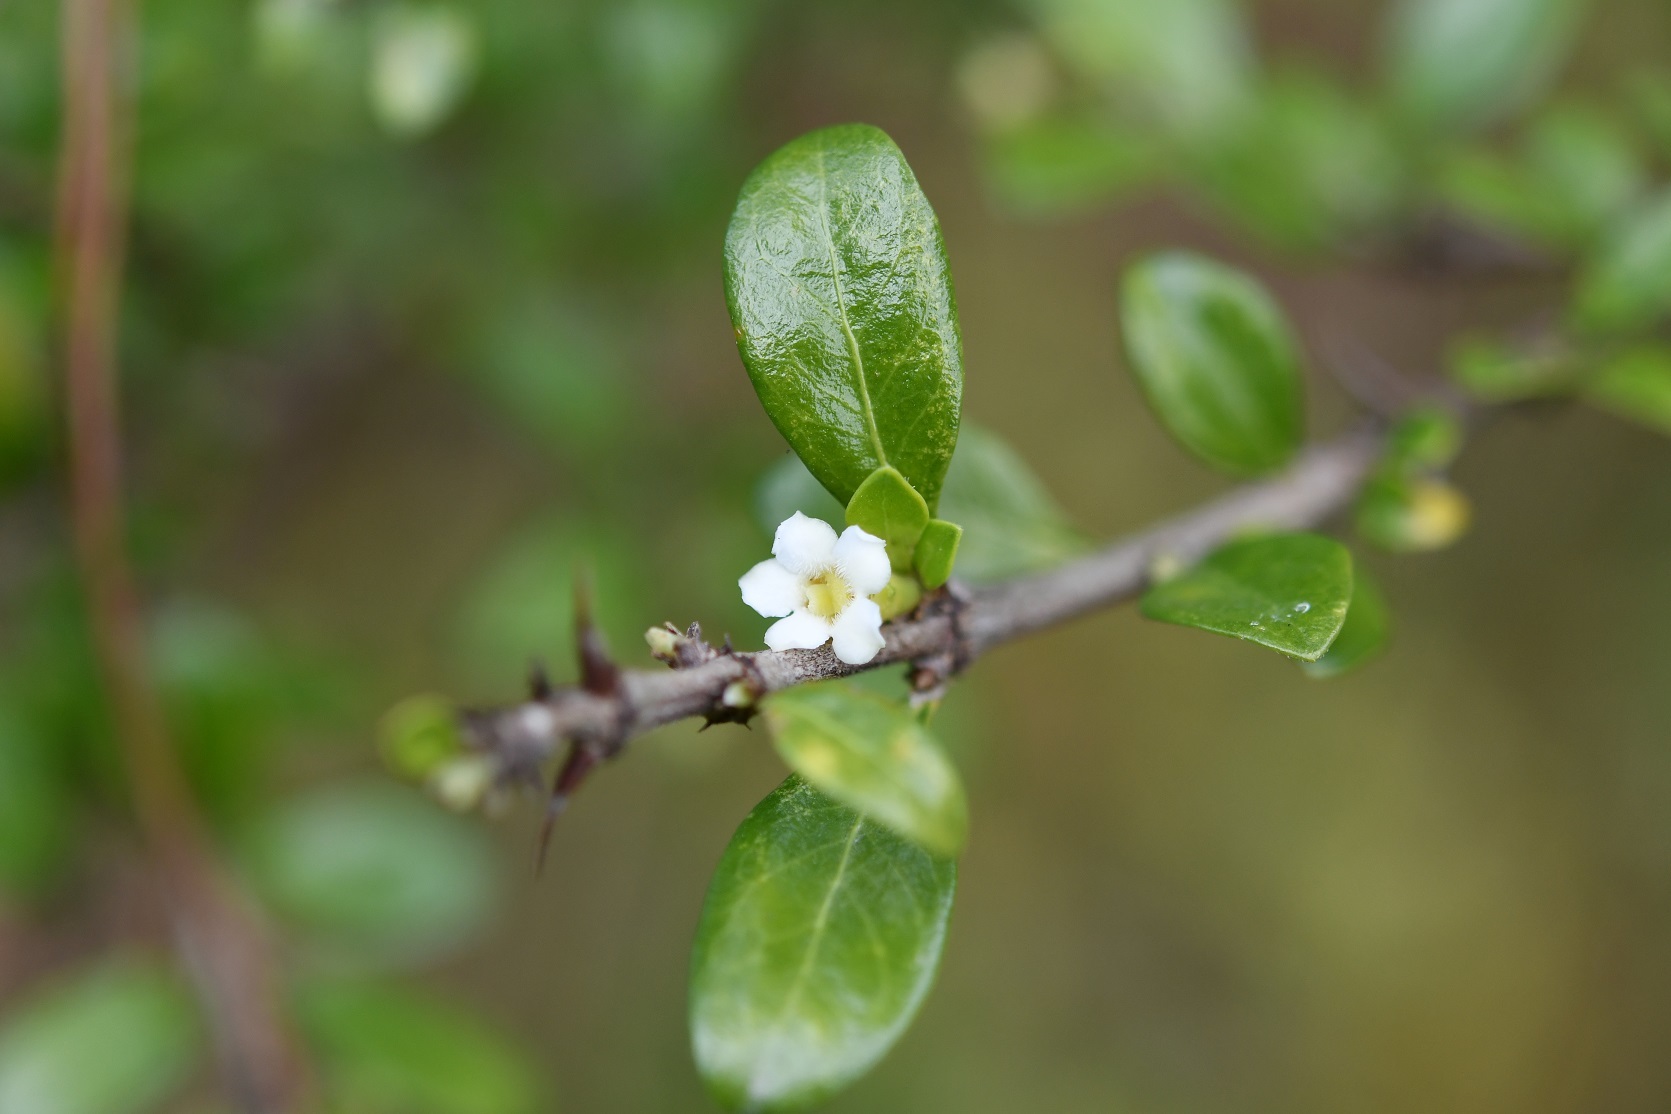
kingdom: Plantae
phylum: Tracheophyta
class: Magnoliopsida
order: Gentianales
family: Rubiaceae
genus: Randia
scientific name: Randia chiapensis
